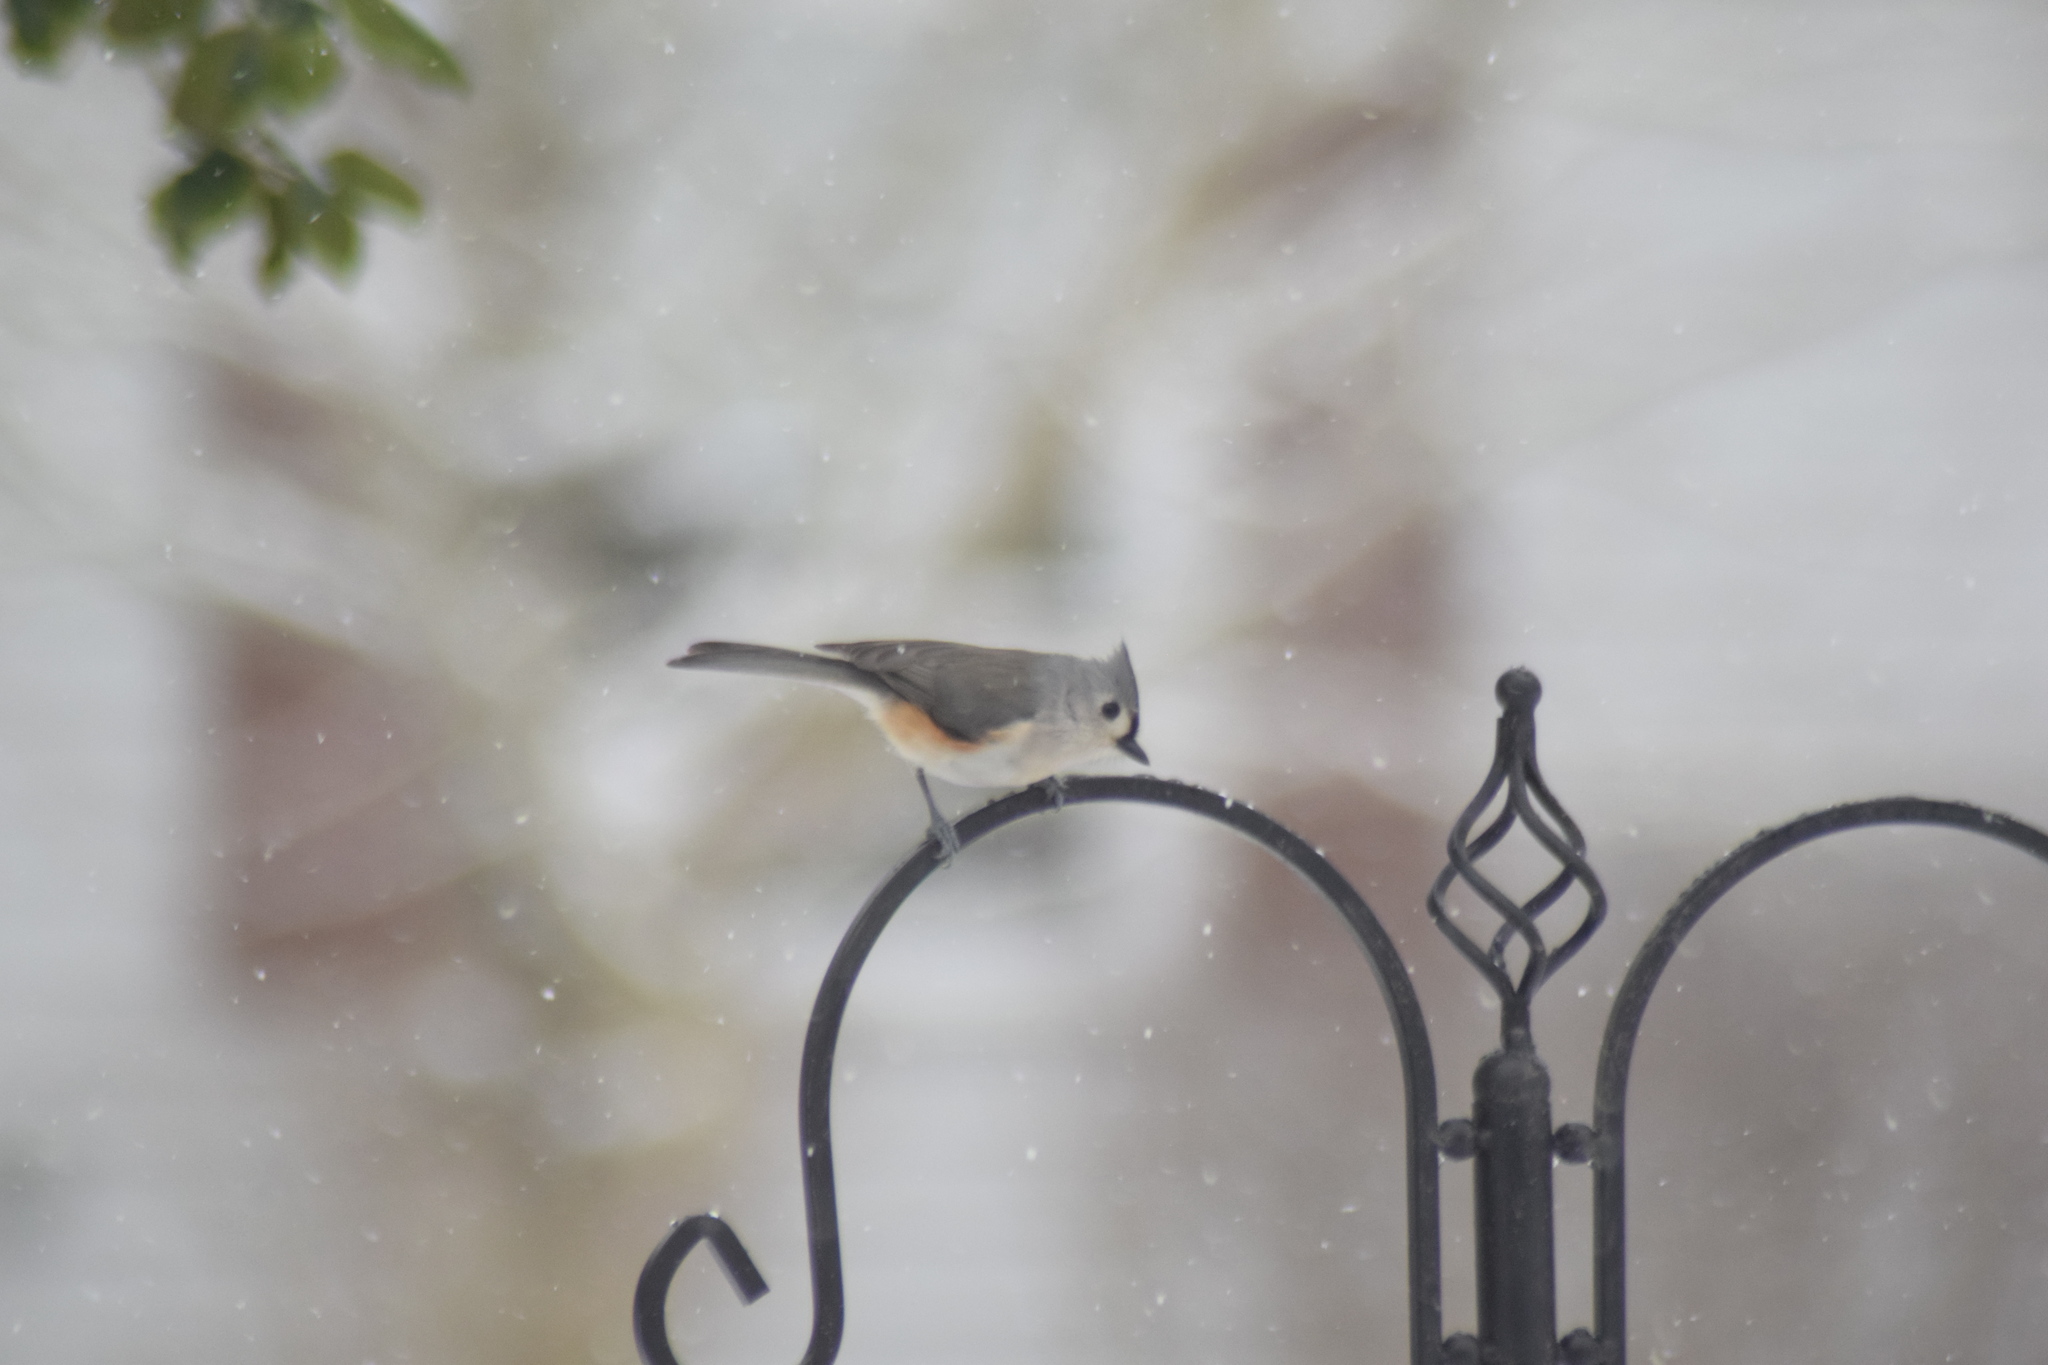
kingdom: Animalia
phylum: Chordata
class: Aves
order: Passeriformes
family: Paridae
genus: Baeolophus
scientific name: Baeolophus bicolor
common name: Tufted titmouse
